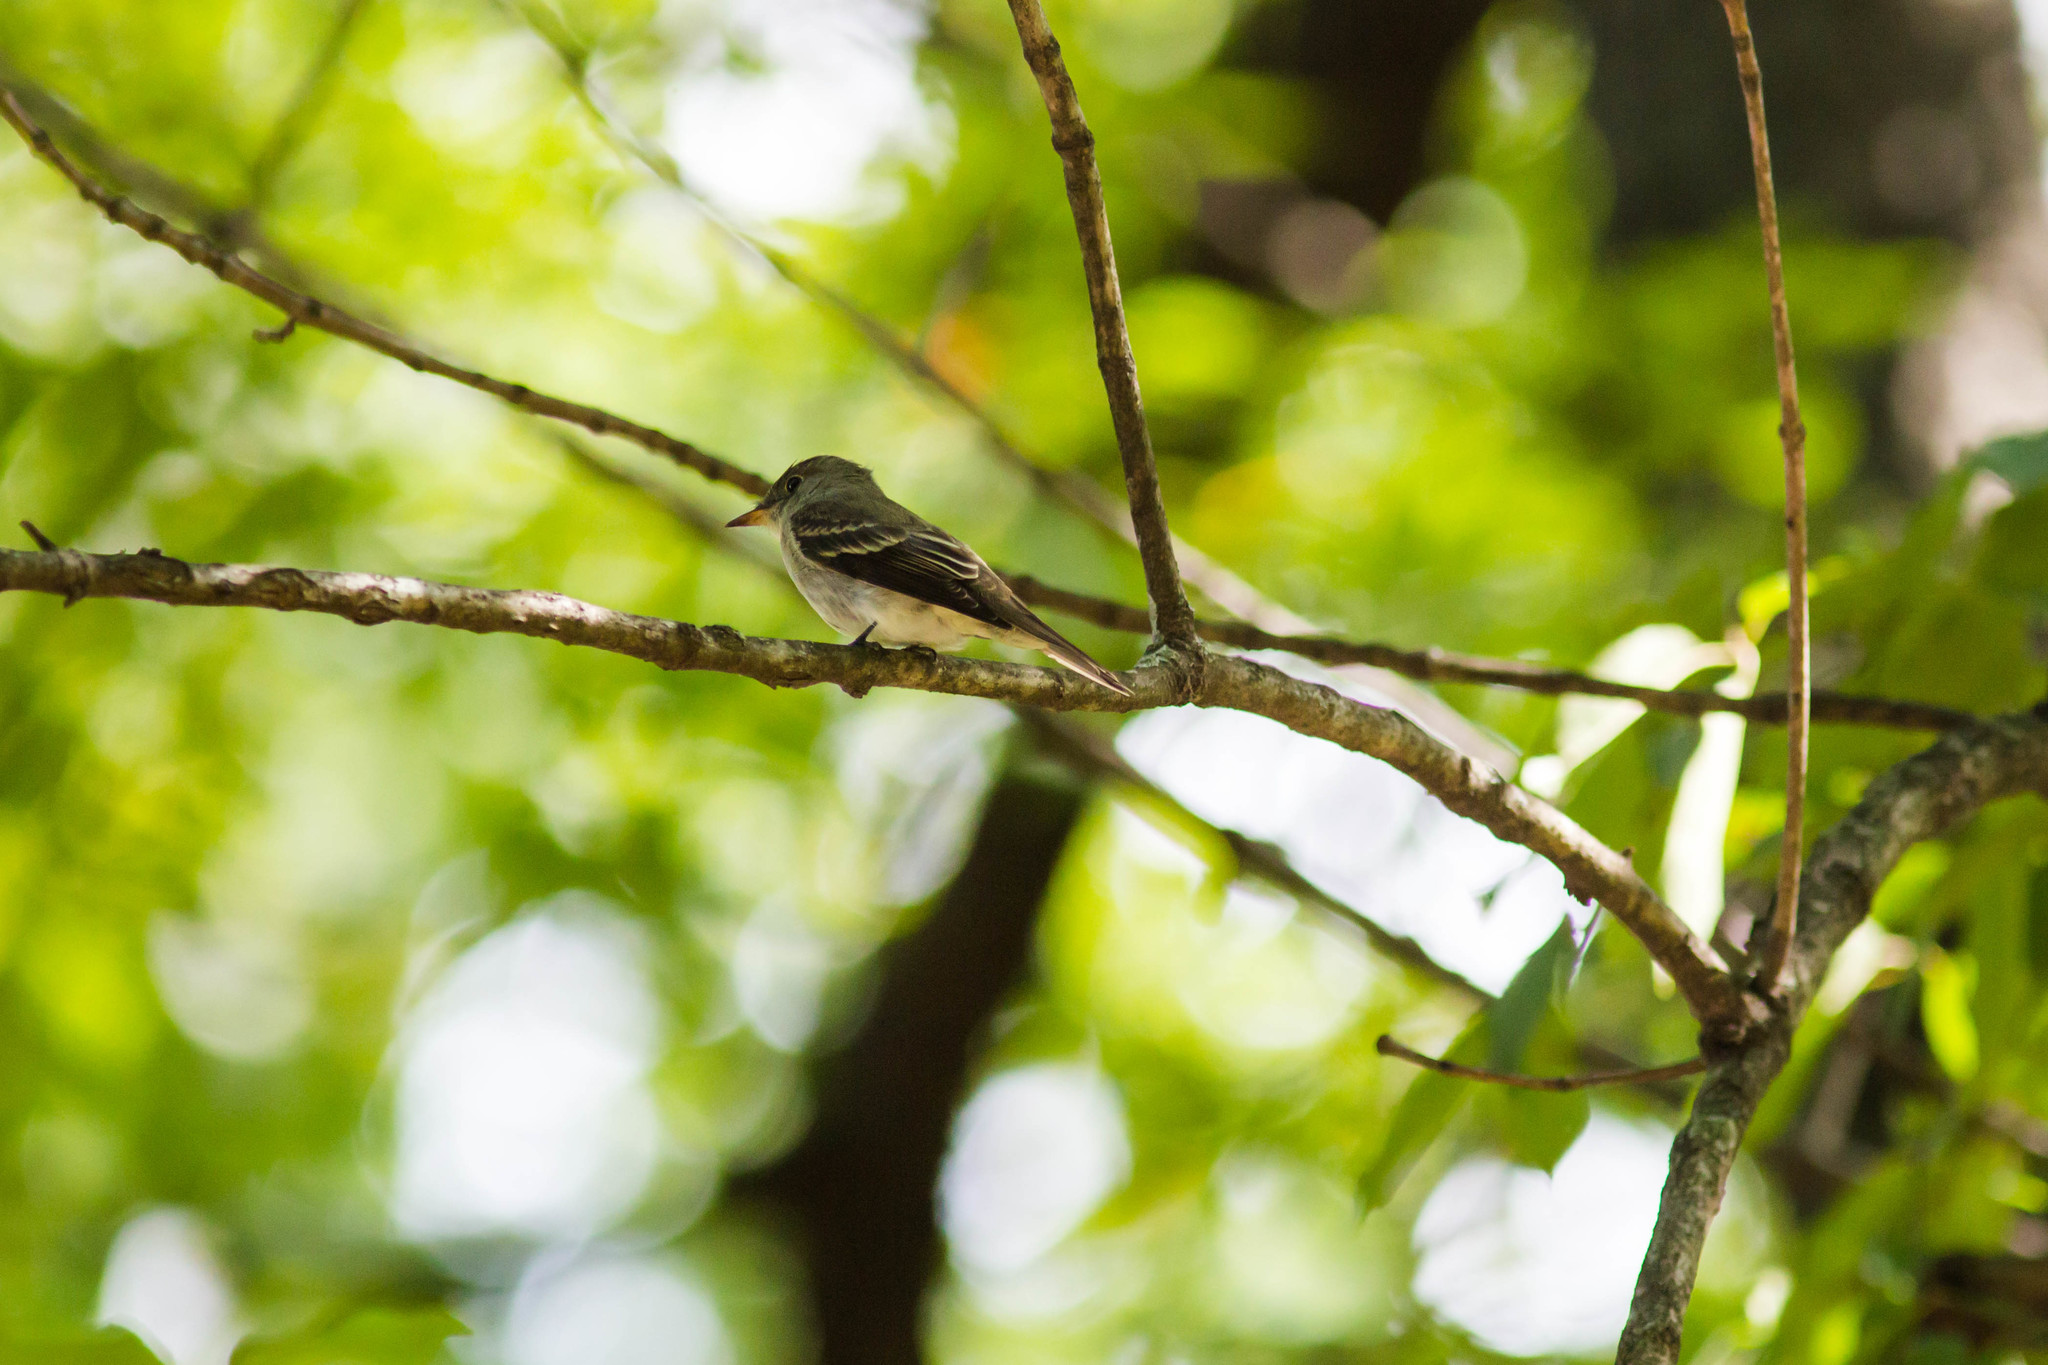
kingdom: Animalia
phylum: Chordata
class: Aves
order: Passeriformes
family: Tyrannidae
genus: Contopus
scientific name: Contopus virens
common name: Eastern wood-pewee
